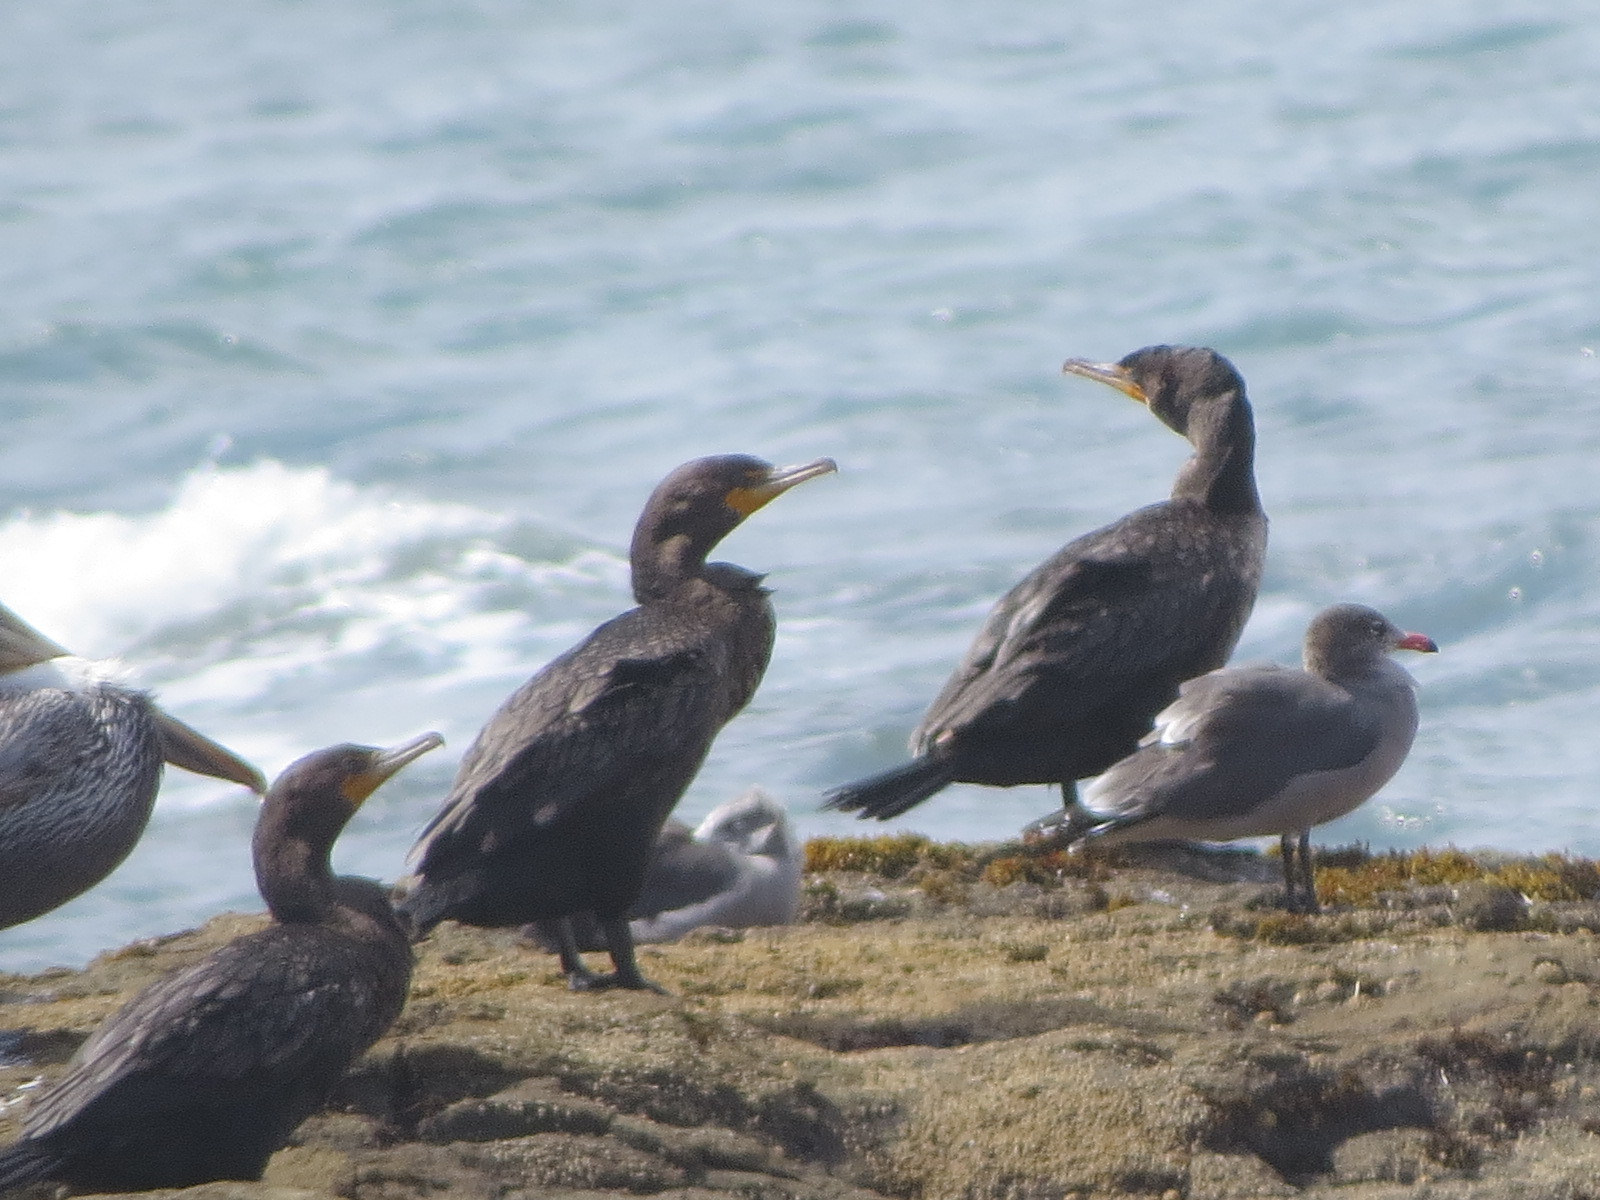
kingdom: Animalia
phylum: Chordata
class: Aves
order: Suliformes
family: Phalacrocoracidae
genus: Phalacrocorax
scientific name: Phalacrocorax auritus
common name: Double-crested cormorant
